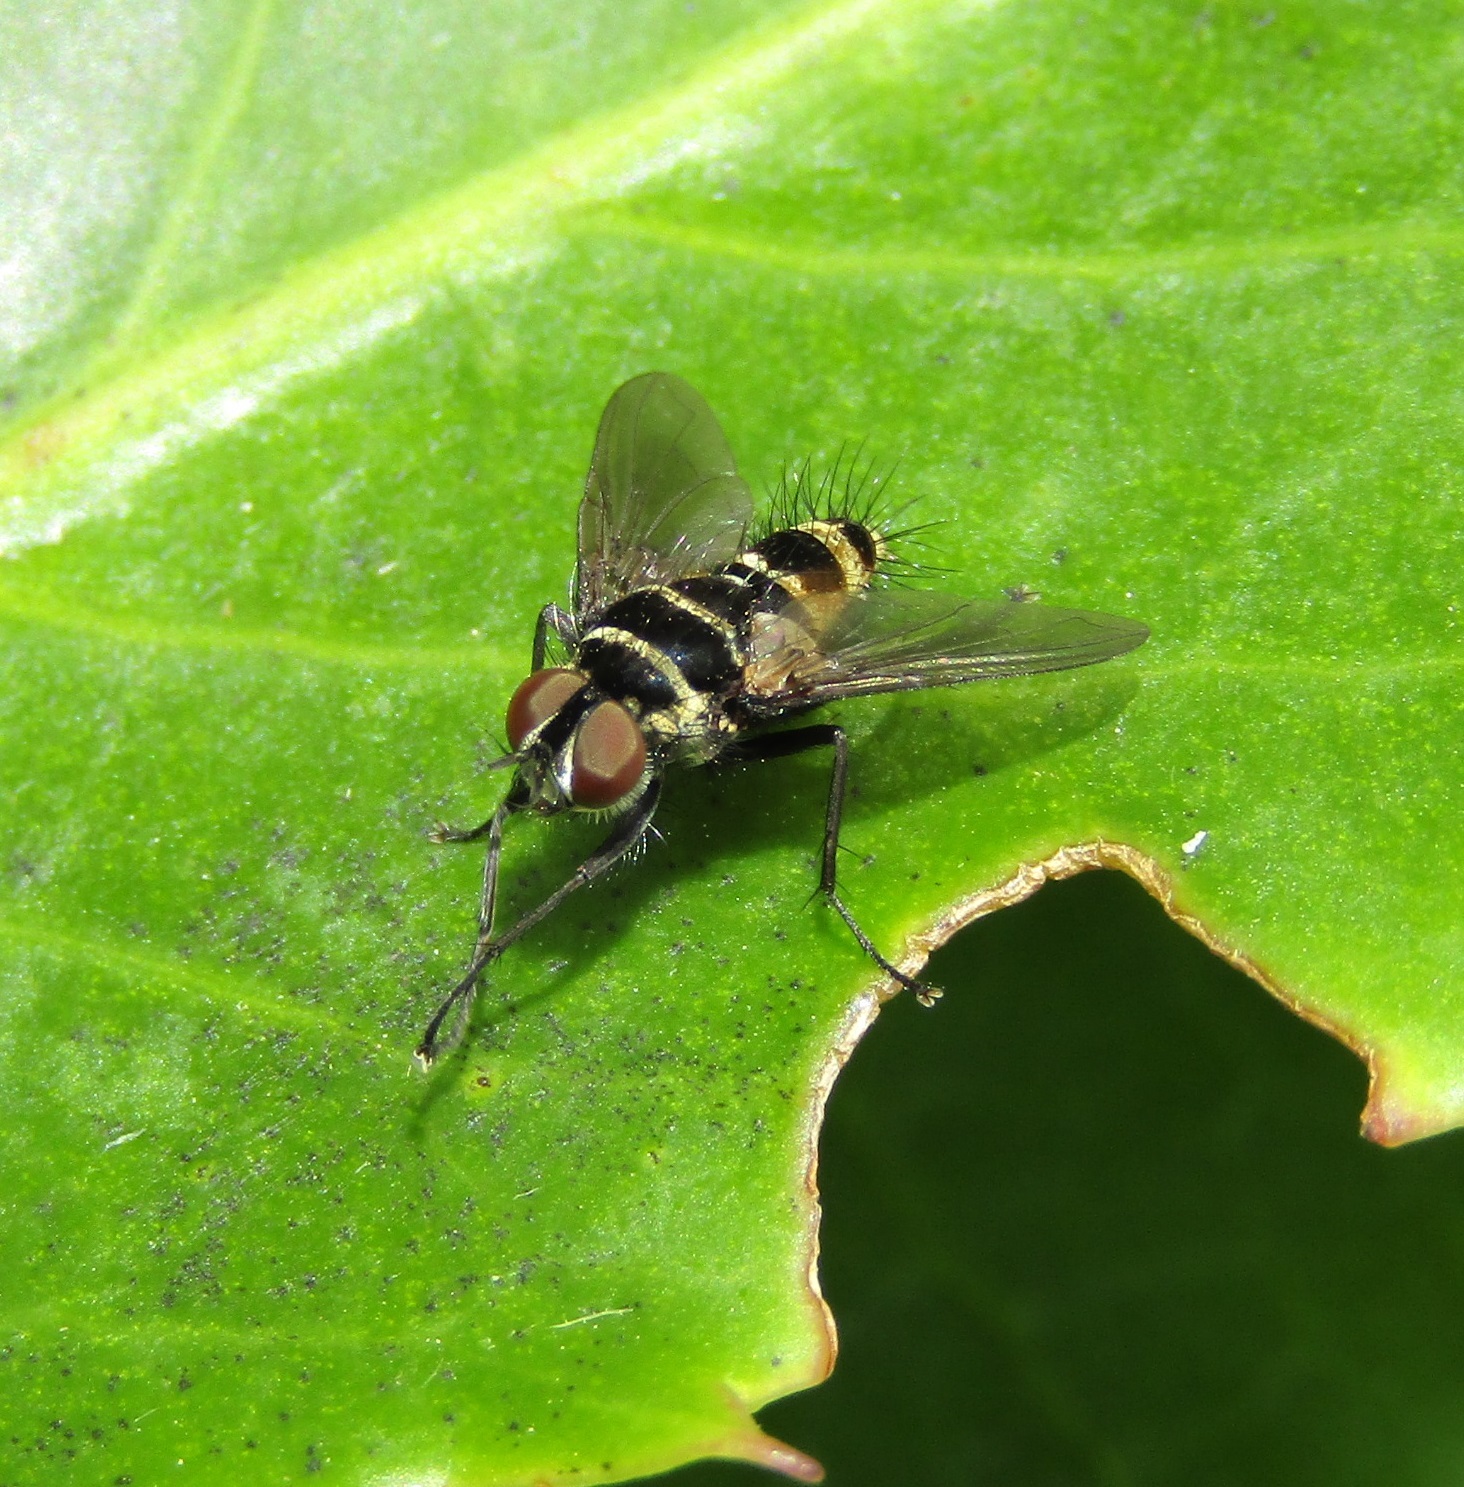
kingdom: Animalia
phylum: Arthropoda
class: Insecta
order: Diptera
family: Tachinidae
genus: Trigonospila
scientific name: Trigonospila brevifacies
